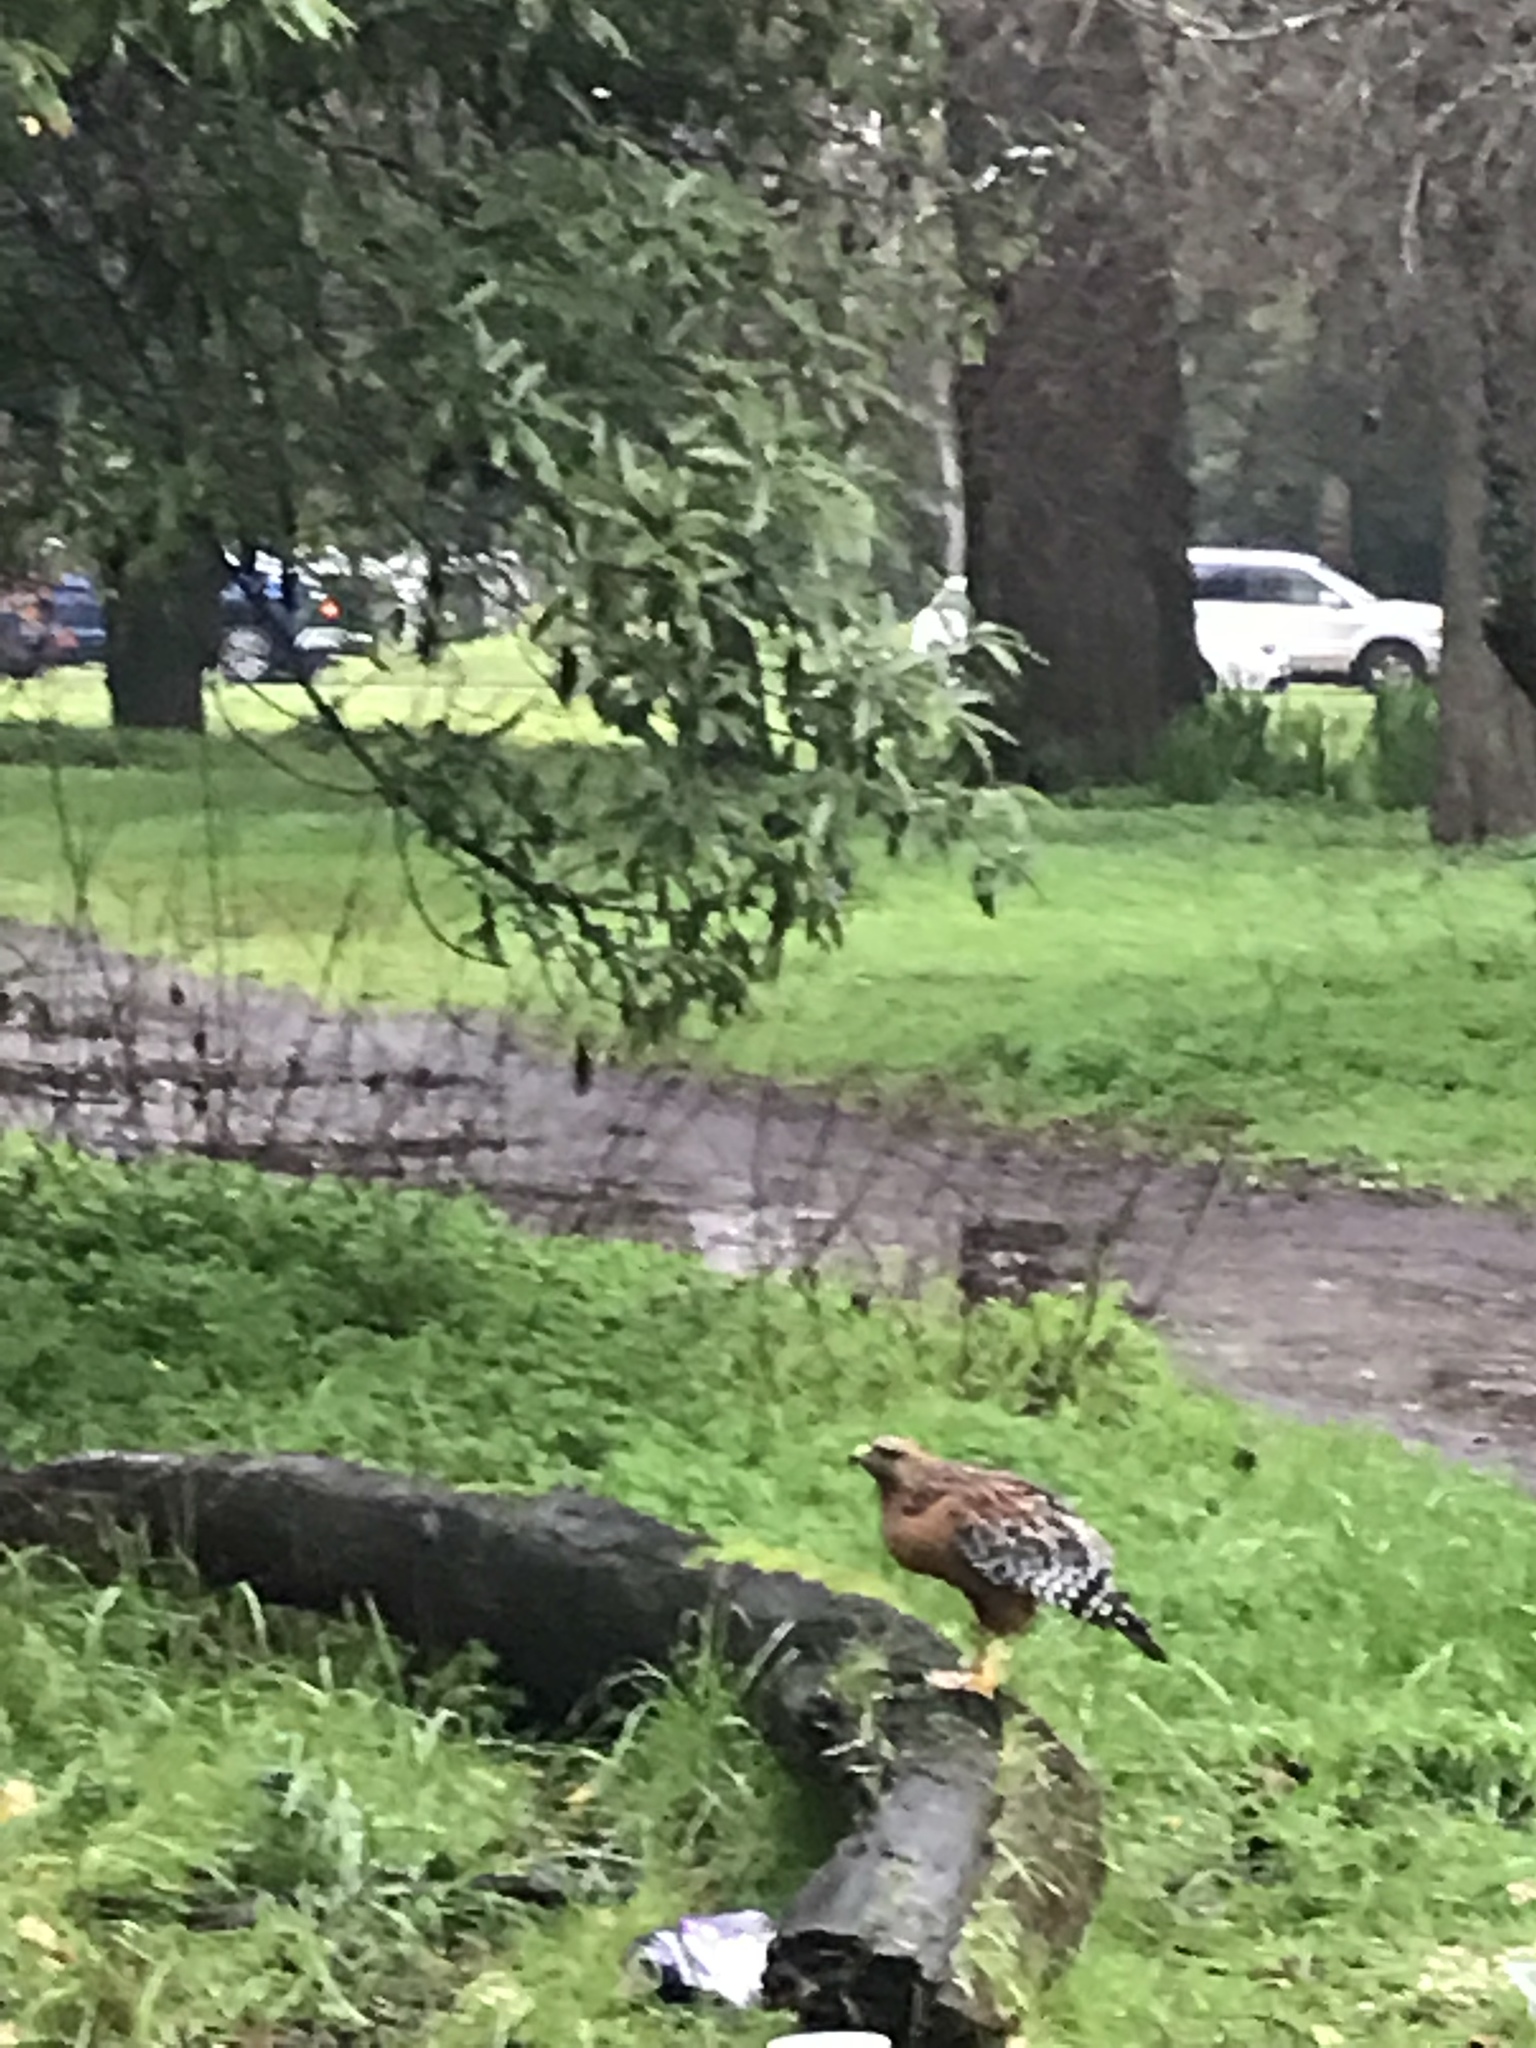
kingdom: Animalia
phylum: Chordata
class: Aves
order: Accipitriformes
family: Accipitridae
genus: Buteo
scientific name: Buteo lineatus
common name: Red-shouldered hawk
